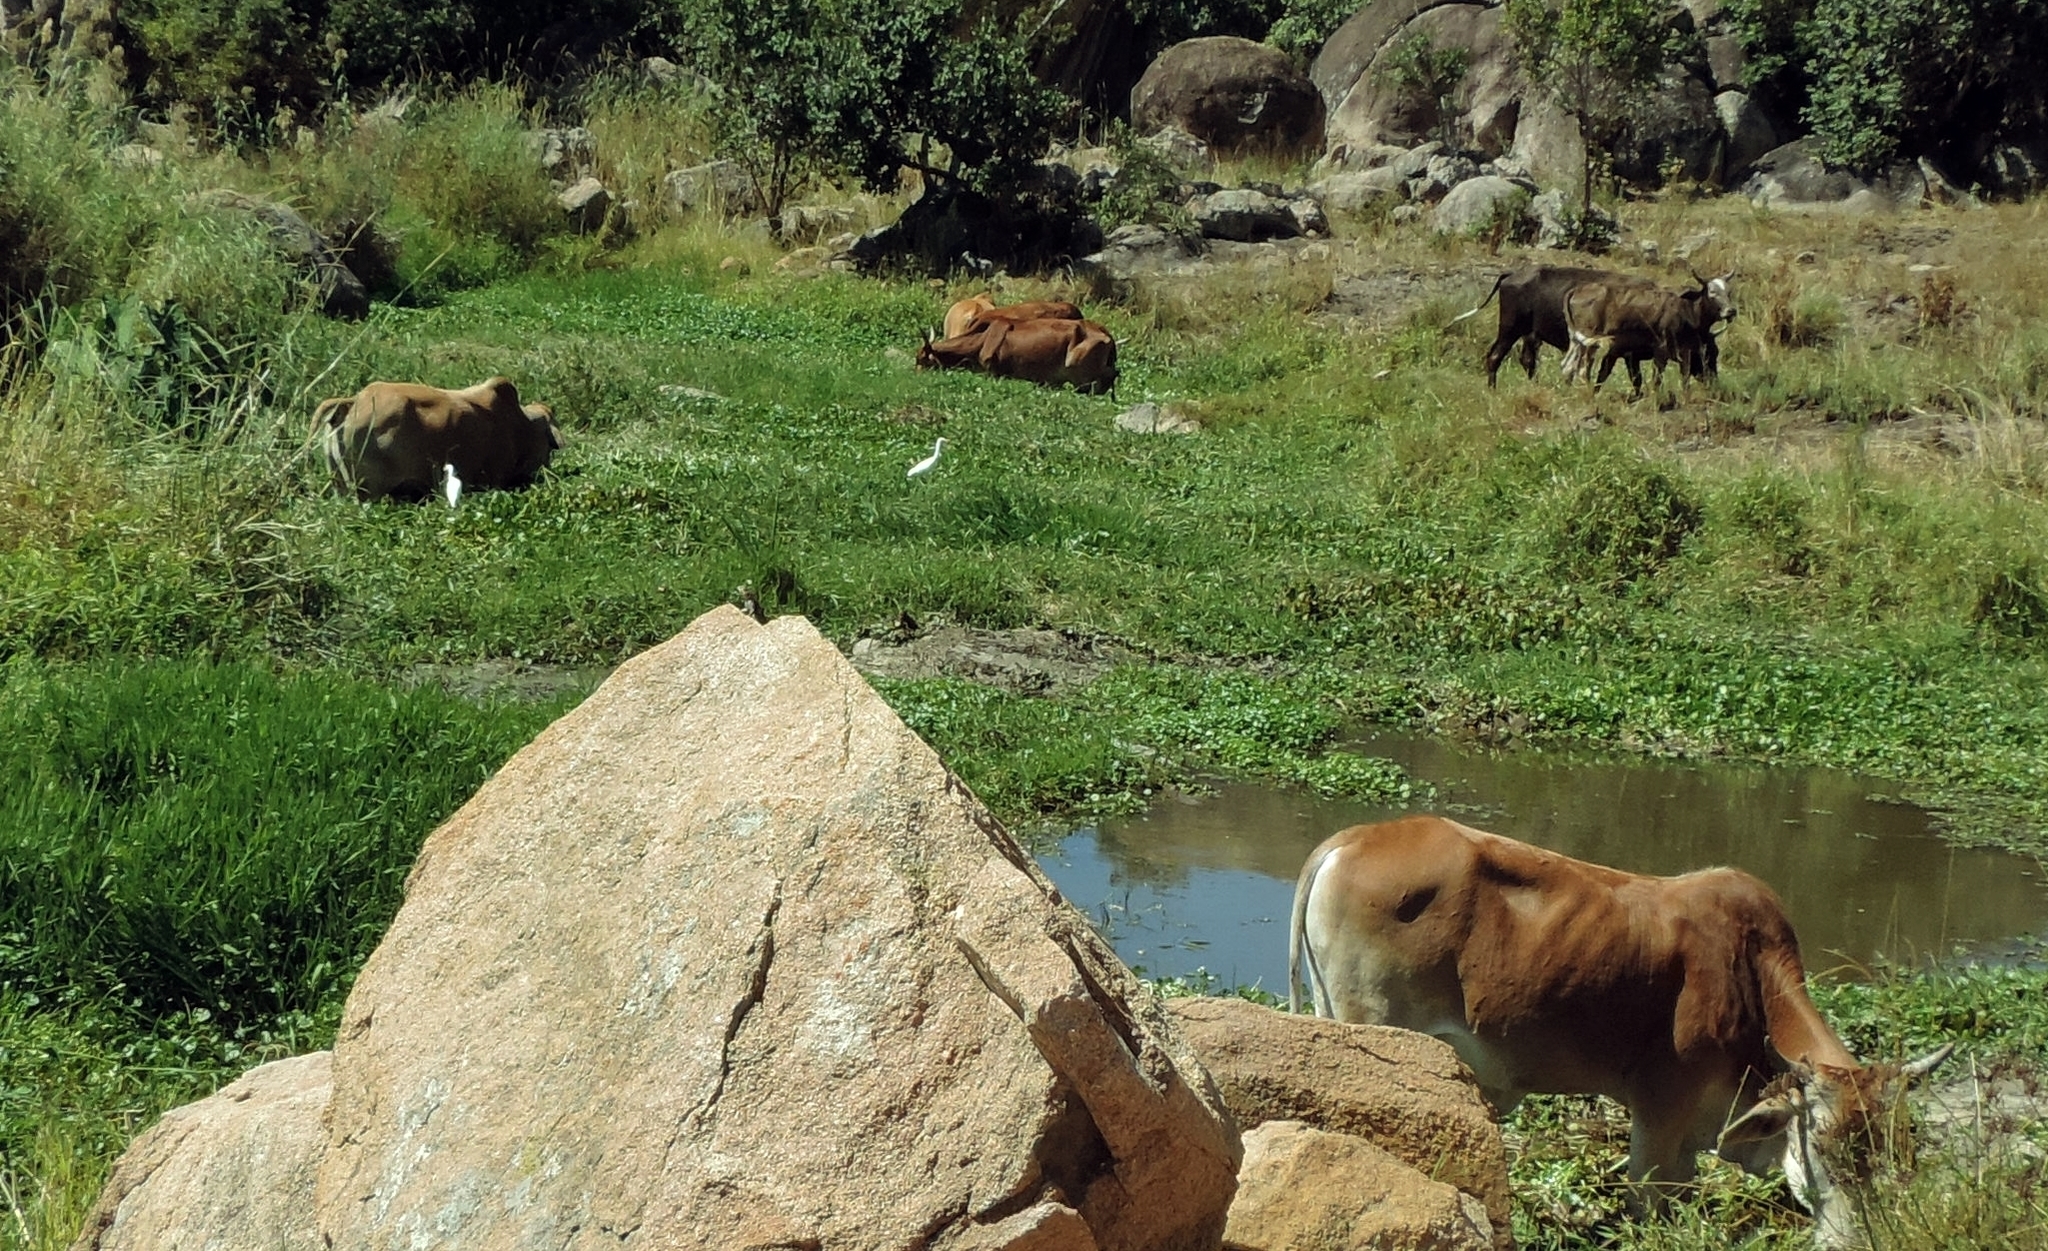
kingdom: Animalia
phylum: Chordata
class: Aves
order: Pelecaniformes
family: Ardeidae
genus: Bubulcus
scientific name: Bubulcus ibis
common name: Cattle egret
